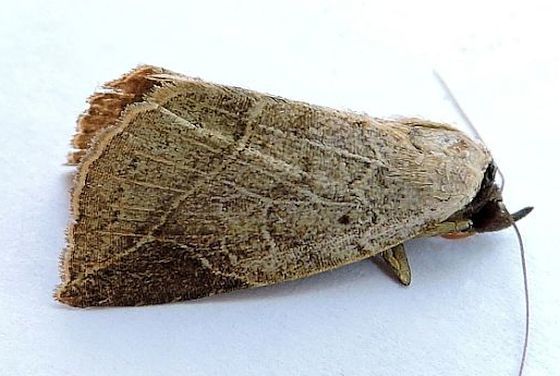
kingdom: Animalia
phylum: Arthropoda
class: Insecta
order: Lepidoptera
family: Erebidae
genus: Isogona
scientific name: Isogona segura
